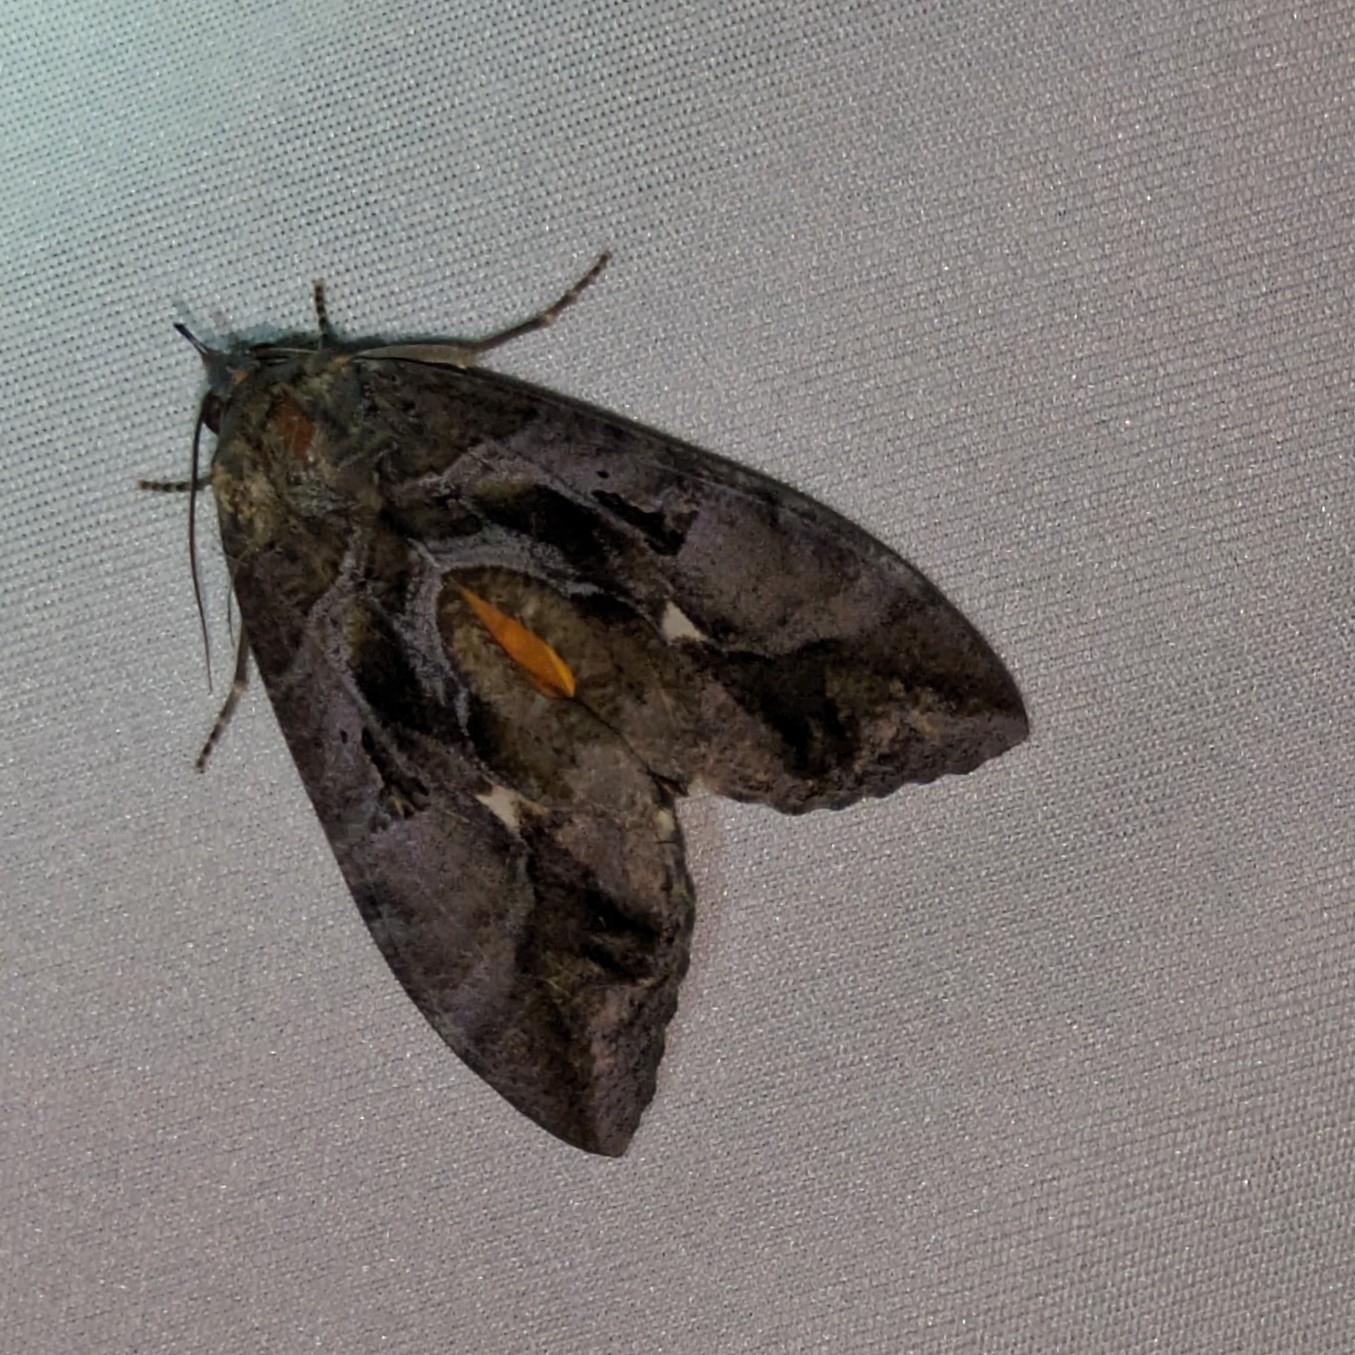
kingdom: Animalia
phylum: Arthropoda
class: Insecta
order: Lepidoptera
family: Erebidae
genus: Eudocima
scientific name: Eudocima phalonia
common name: Wasp
